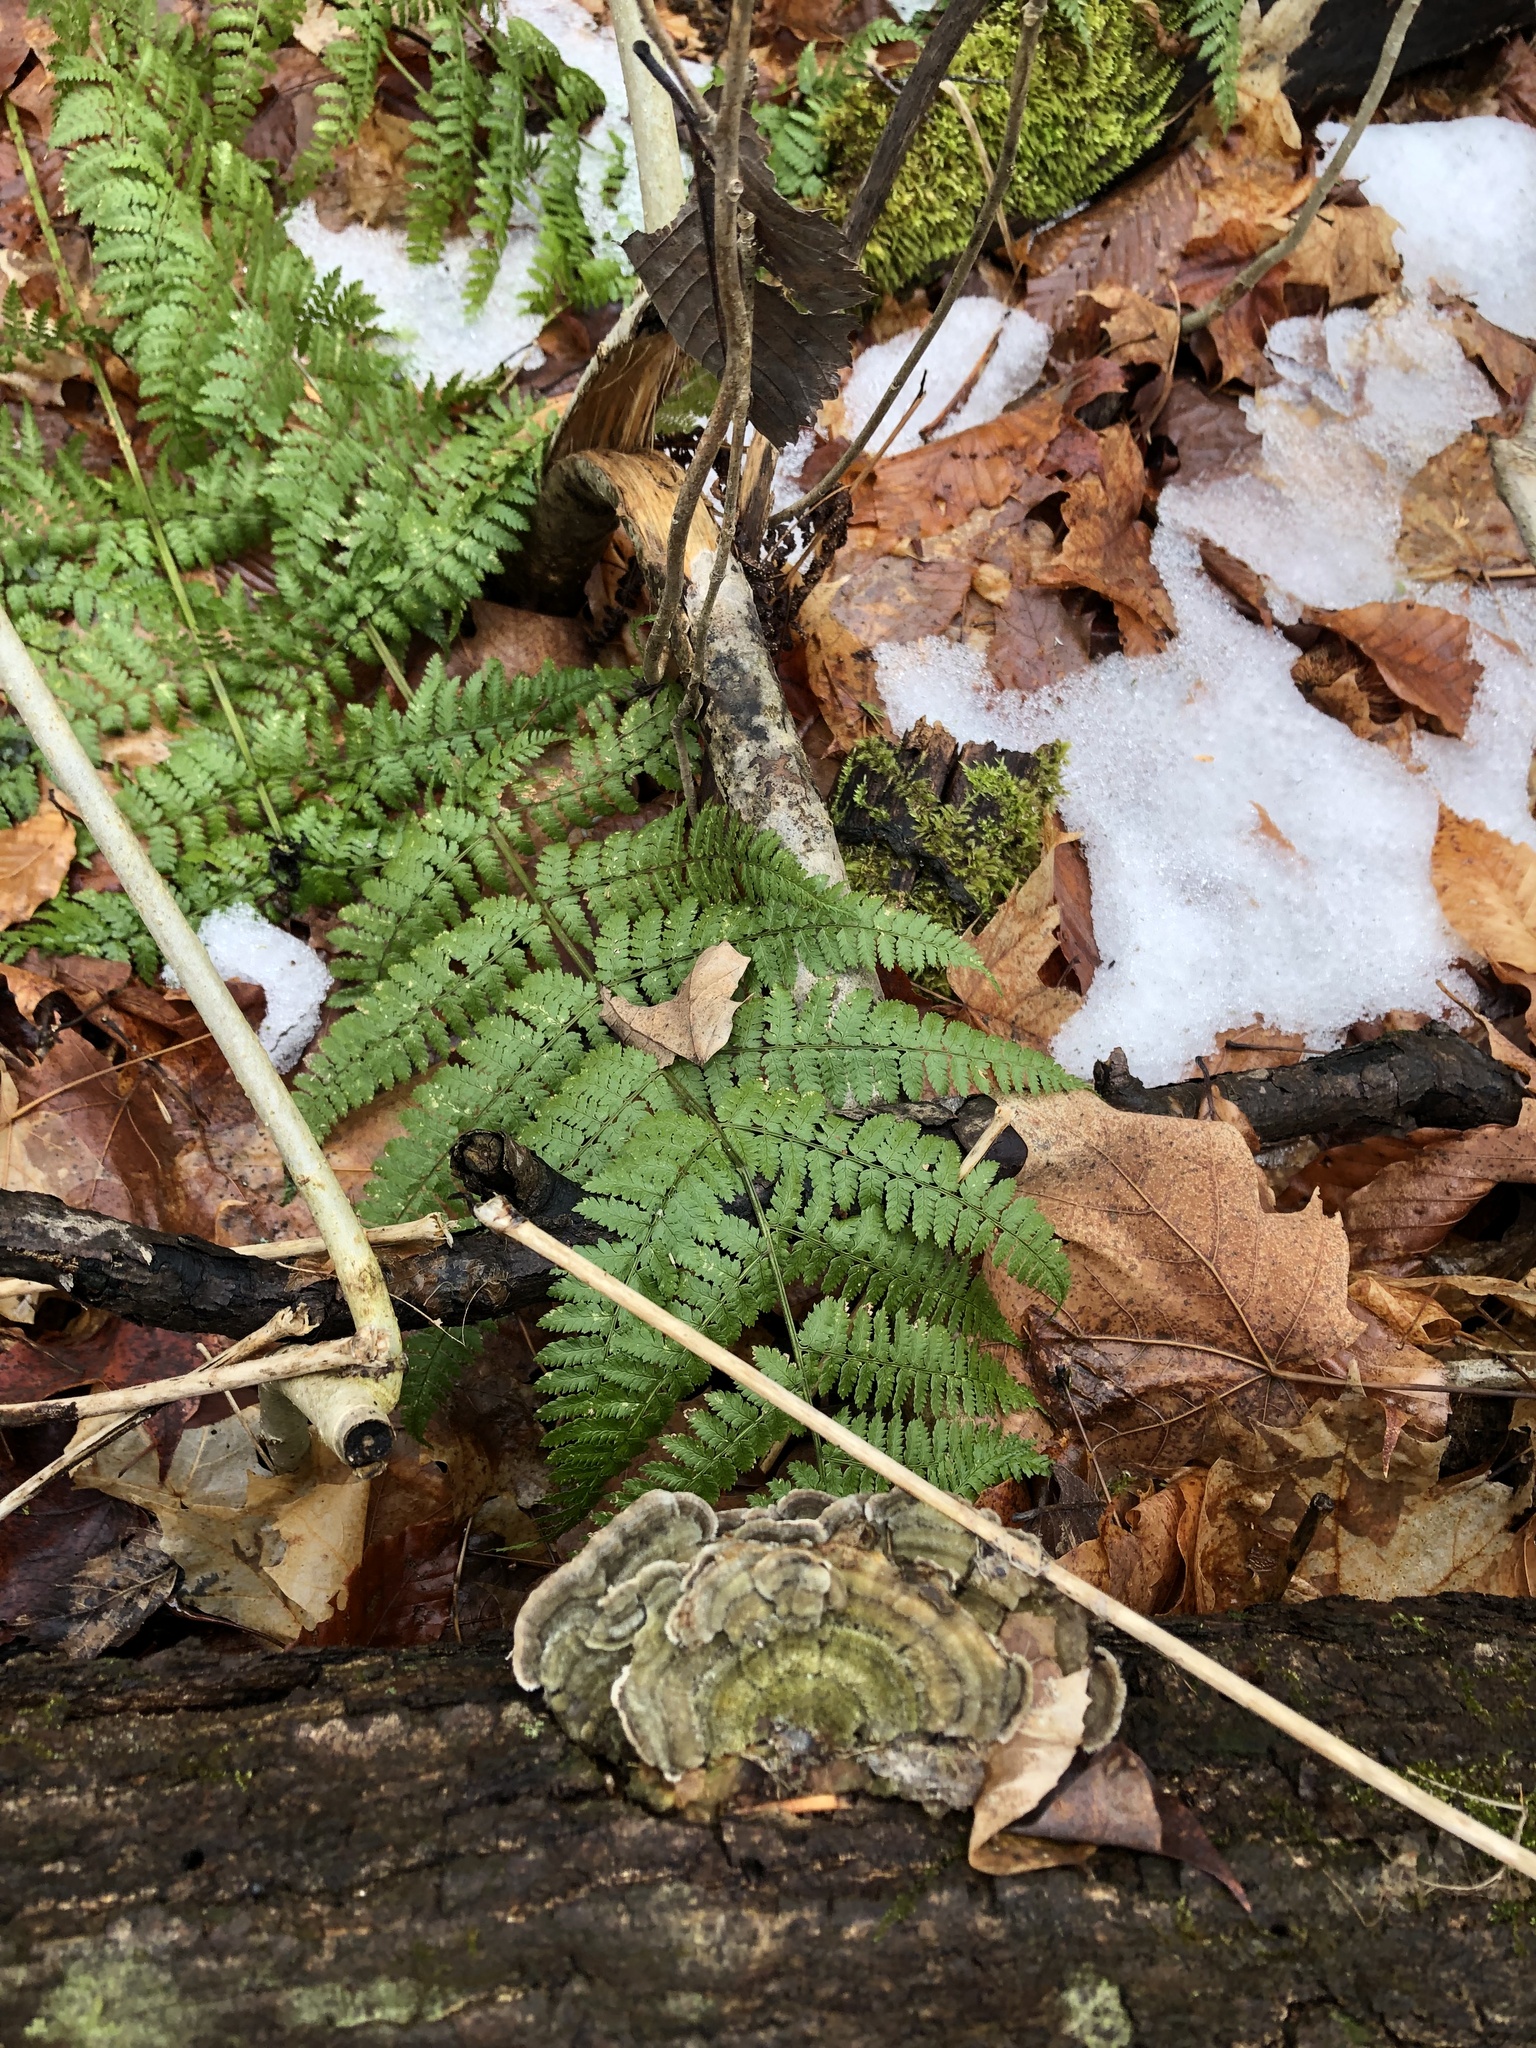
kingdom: Plantae
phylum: Tracheophyta
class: Polypodiopsida
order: Polypodiales
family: Dryopteridaceae
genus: Dryopteris
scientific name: Dryopteris intermedia
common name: Evergreen wood fern
